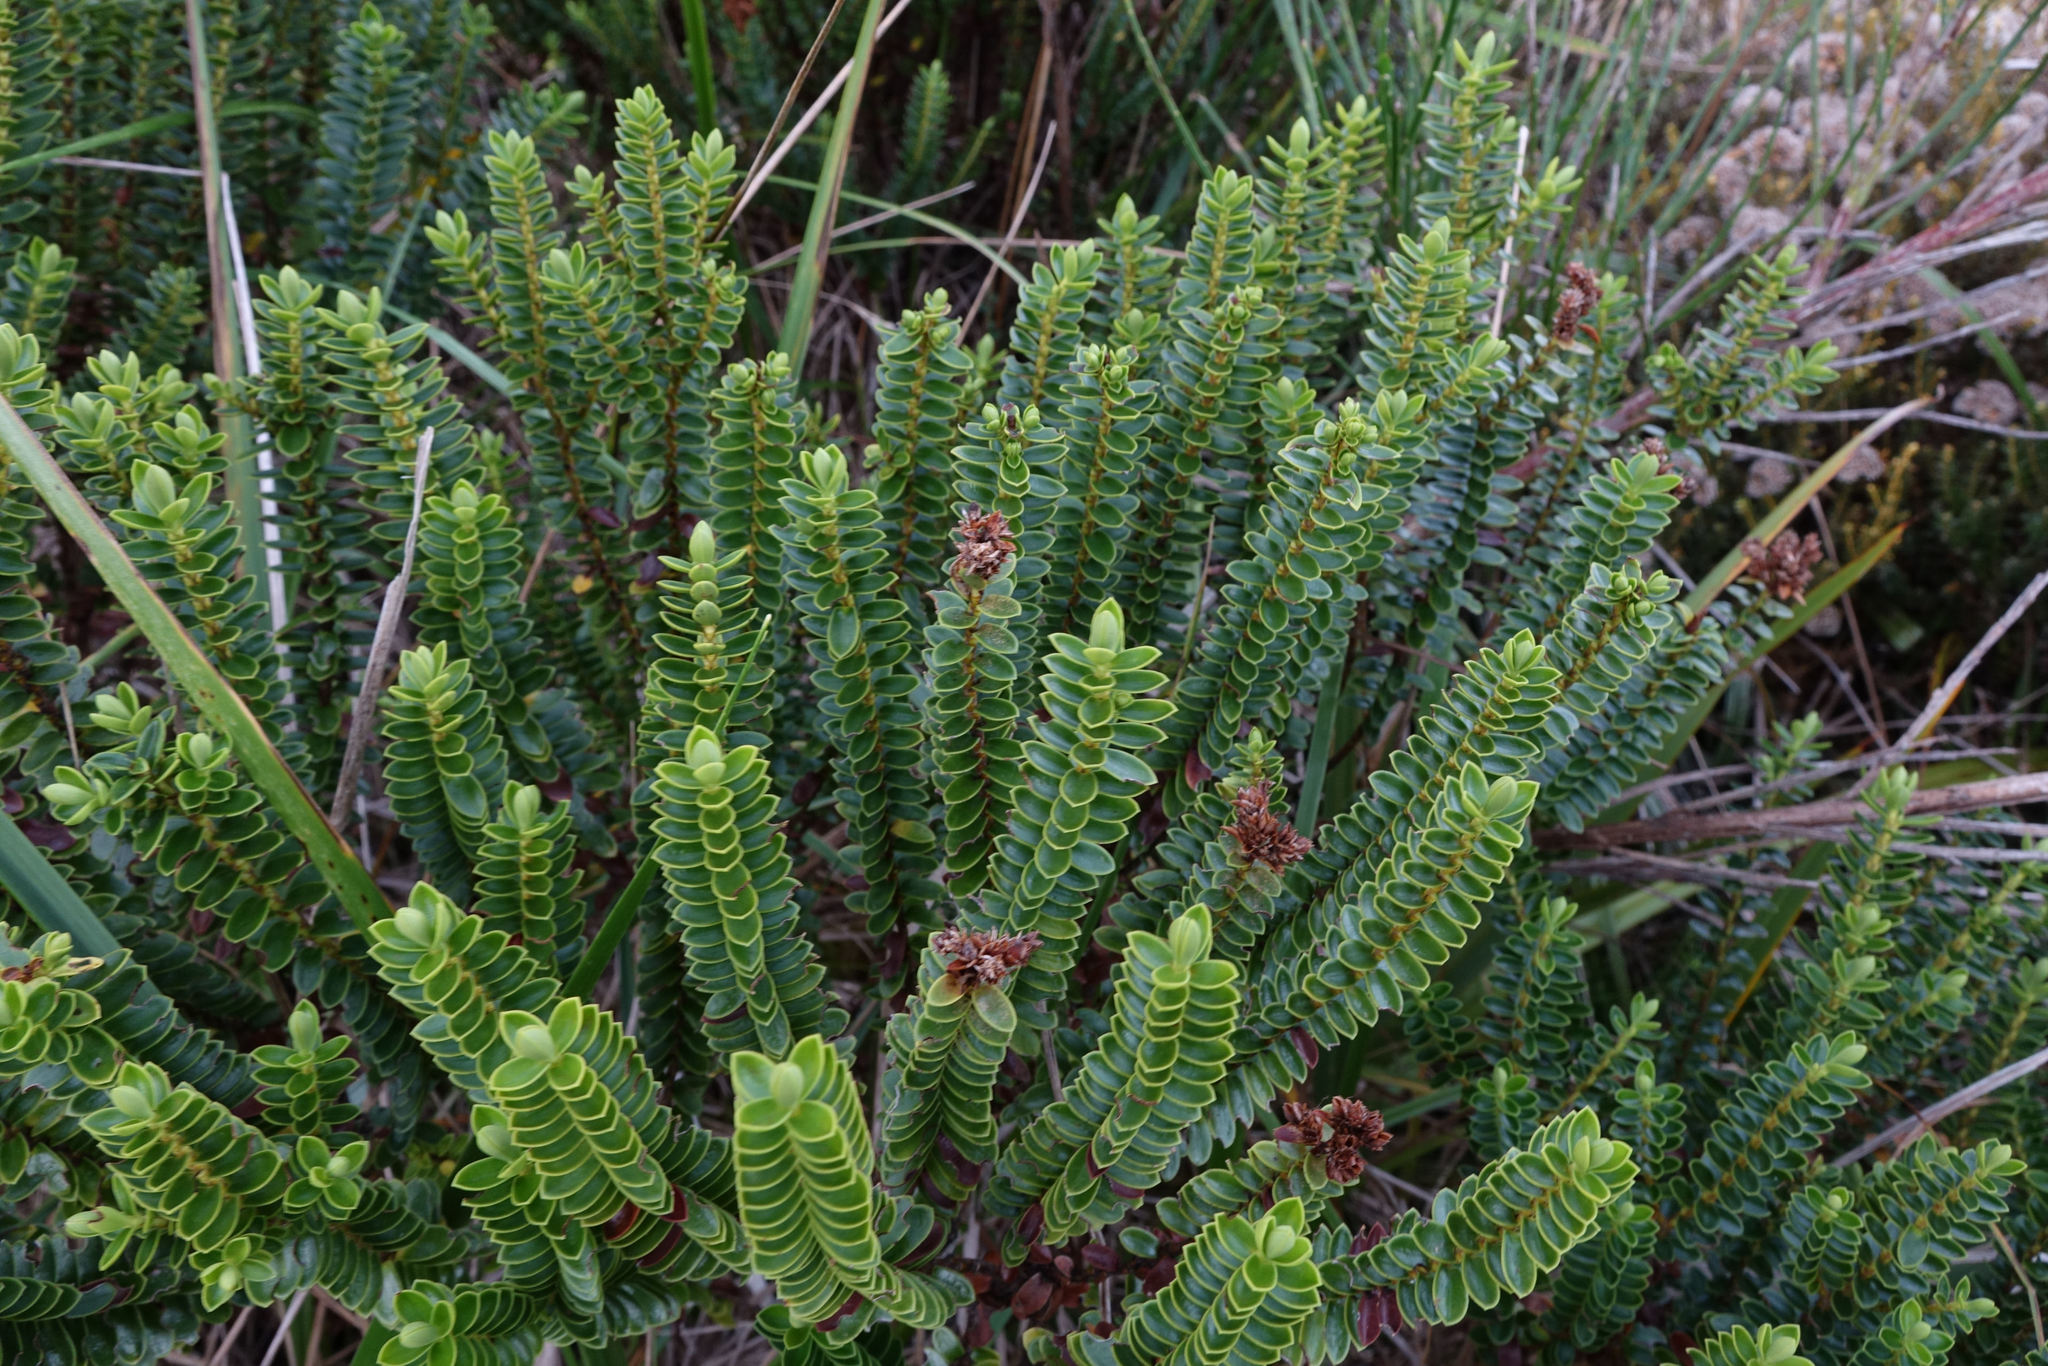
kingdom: Plantae
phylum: Tracheophyta
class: Magnoliopsida
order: Lamiales
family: Plantaginaceae
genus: Veronica
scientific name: Veronica odora
